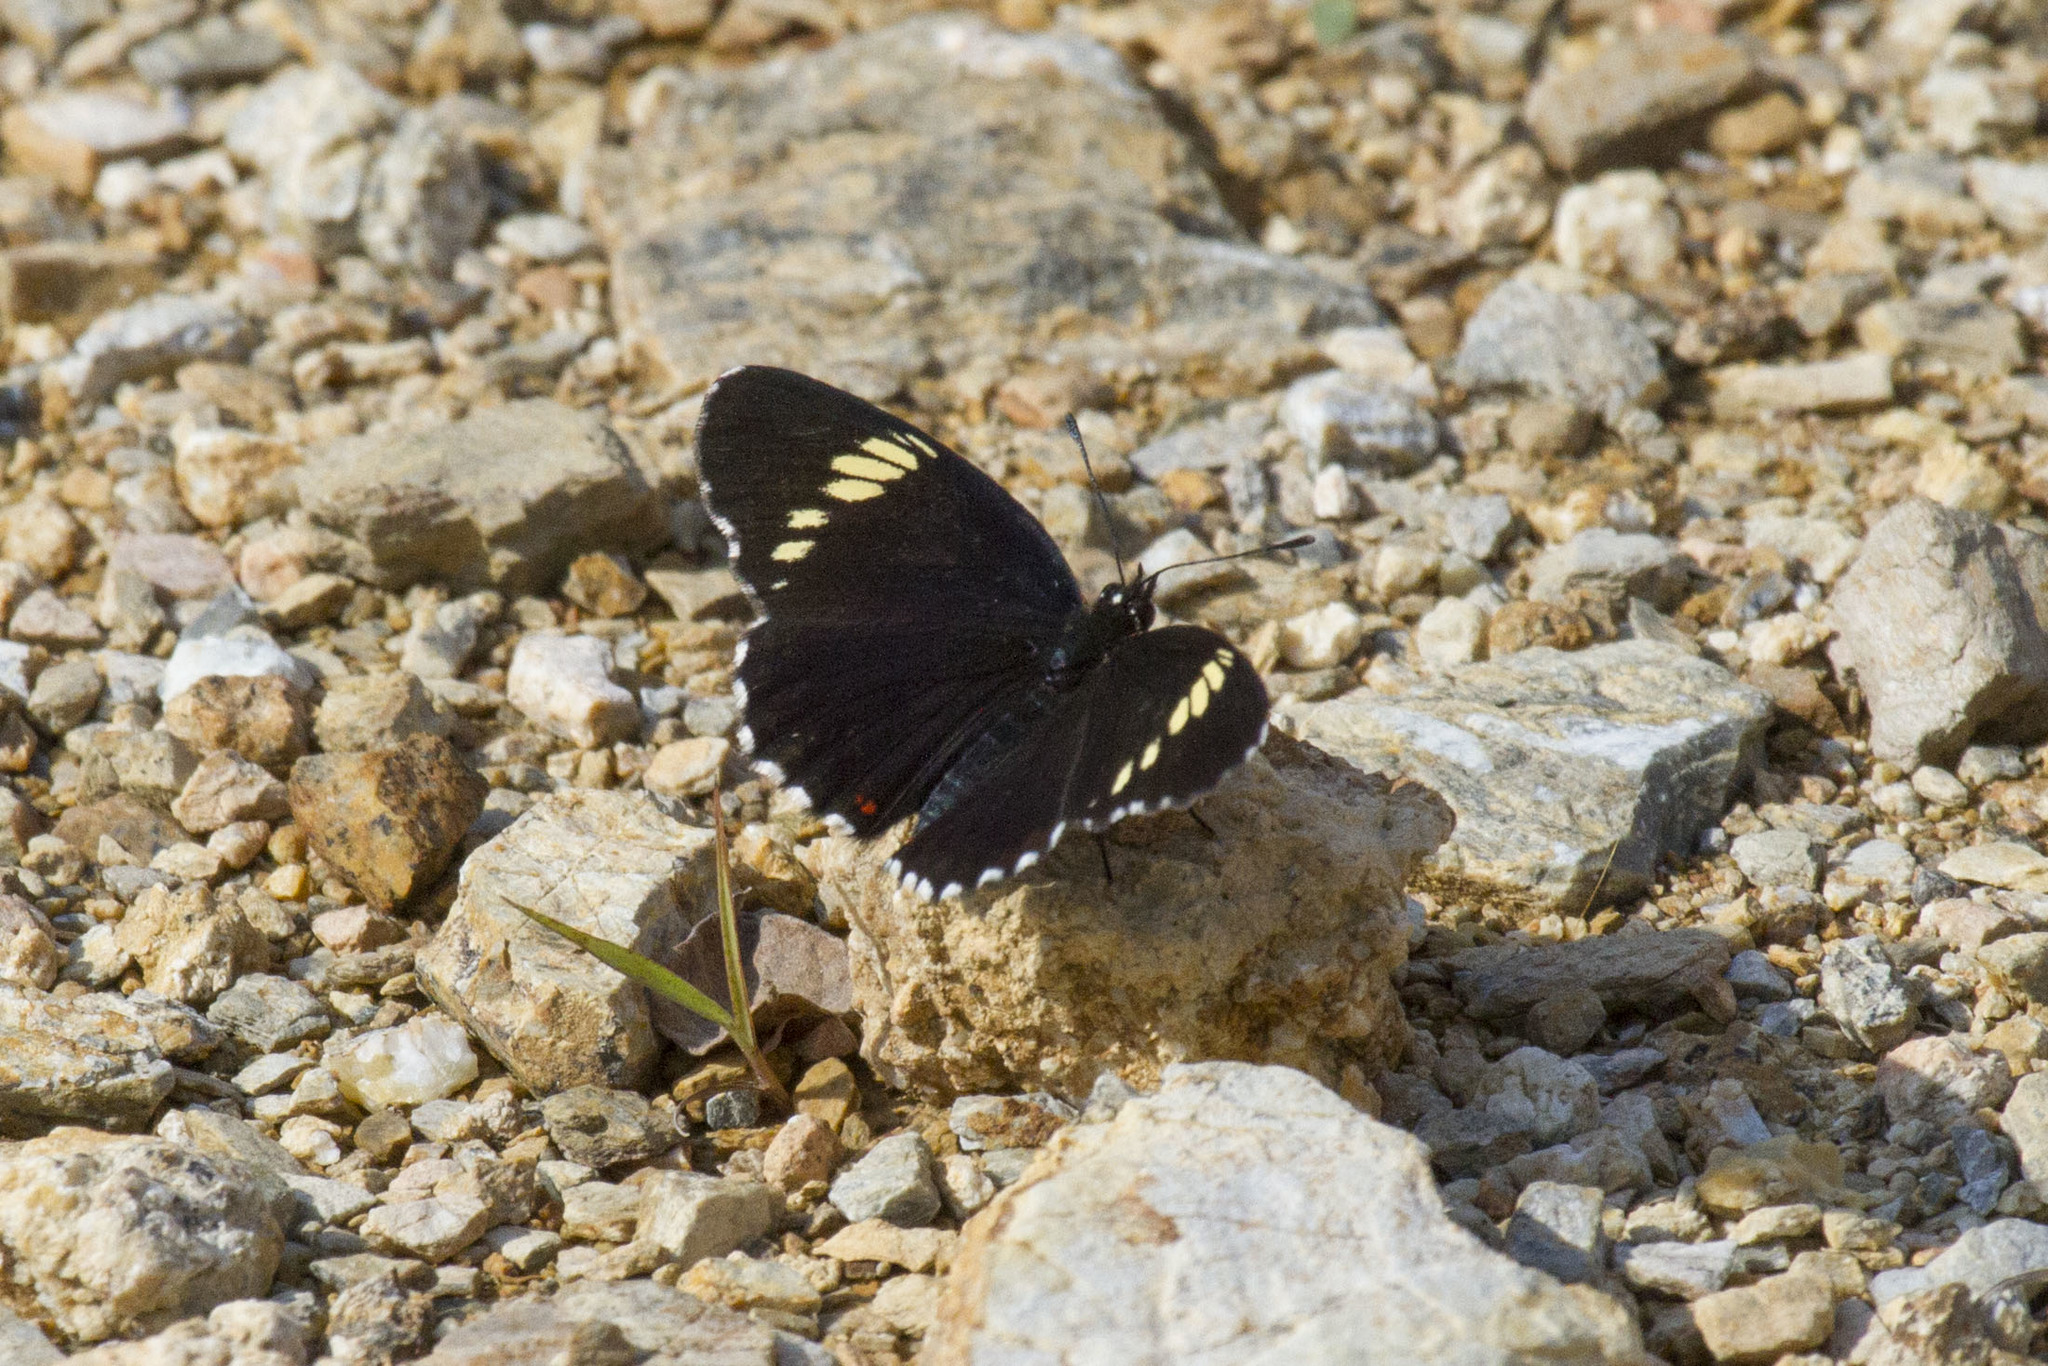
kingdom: Animalia
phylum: Arthropoda
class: Insecta
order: Lepidoptera
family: Nymphalidae
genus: Chlosyne
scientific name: Chlosyne melanarge
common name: Cream-banded checkerspot
